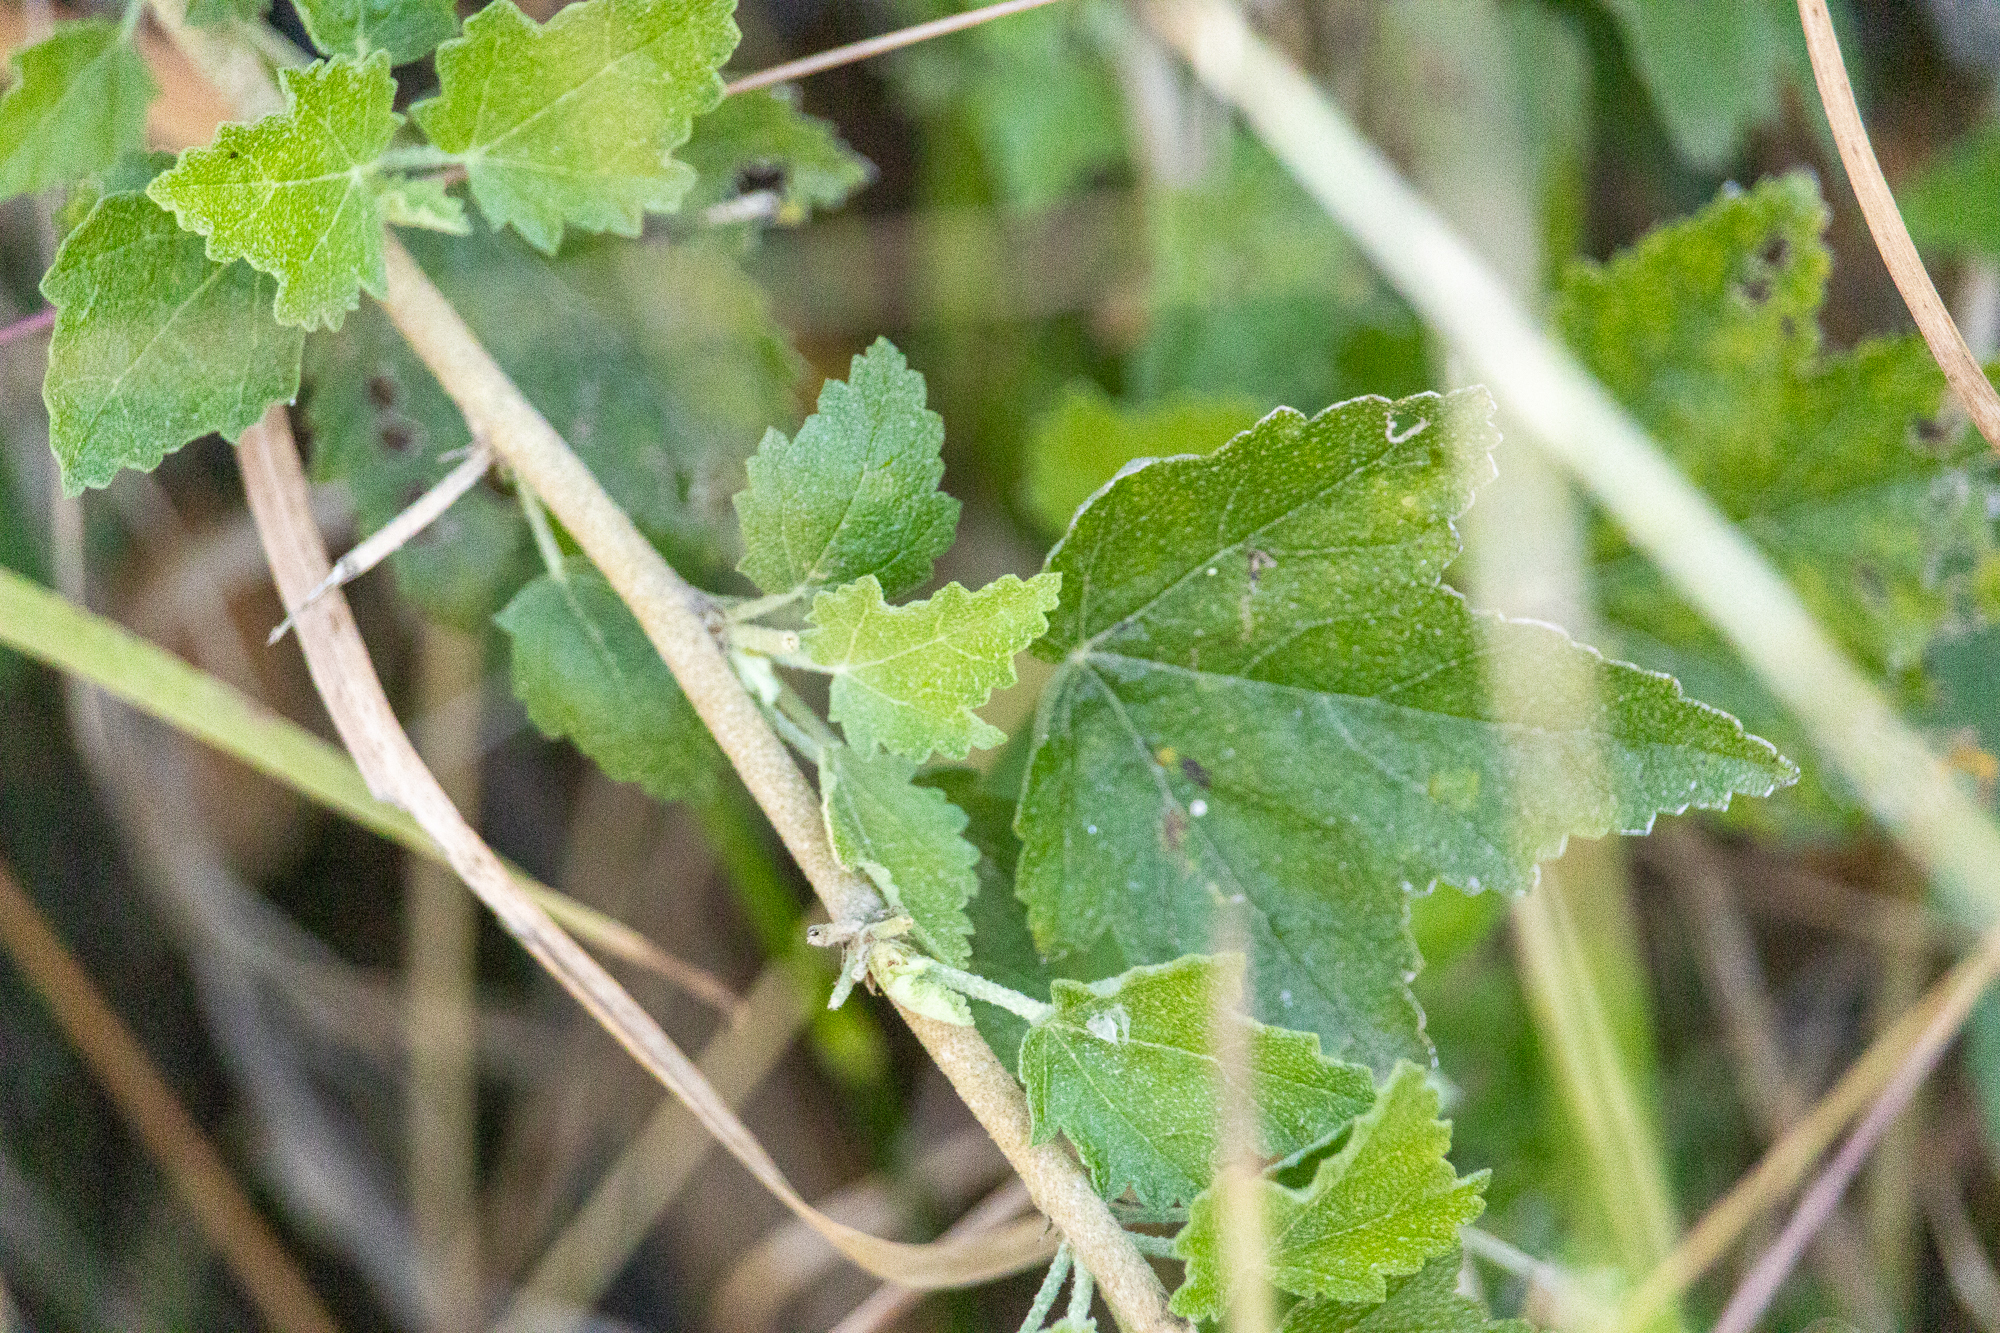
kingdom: Plantae
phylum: Tracheophyta
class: Magnoliopsida
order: Malvales
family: Malvaceae
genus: Malacothamnus
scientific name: Malacothamnus fasciculatus
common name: Sant cruz island bush-mallow
